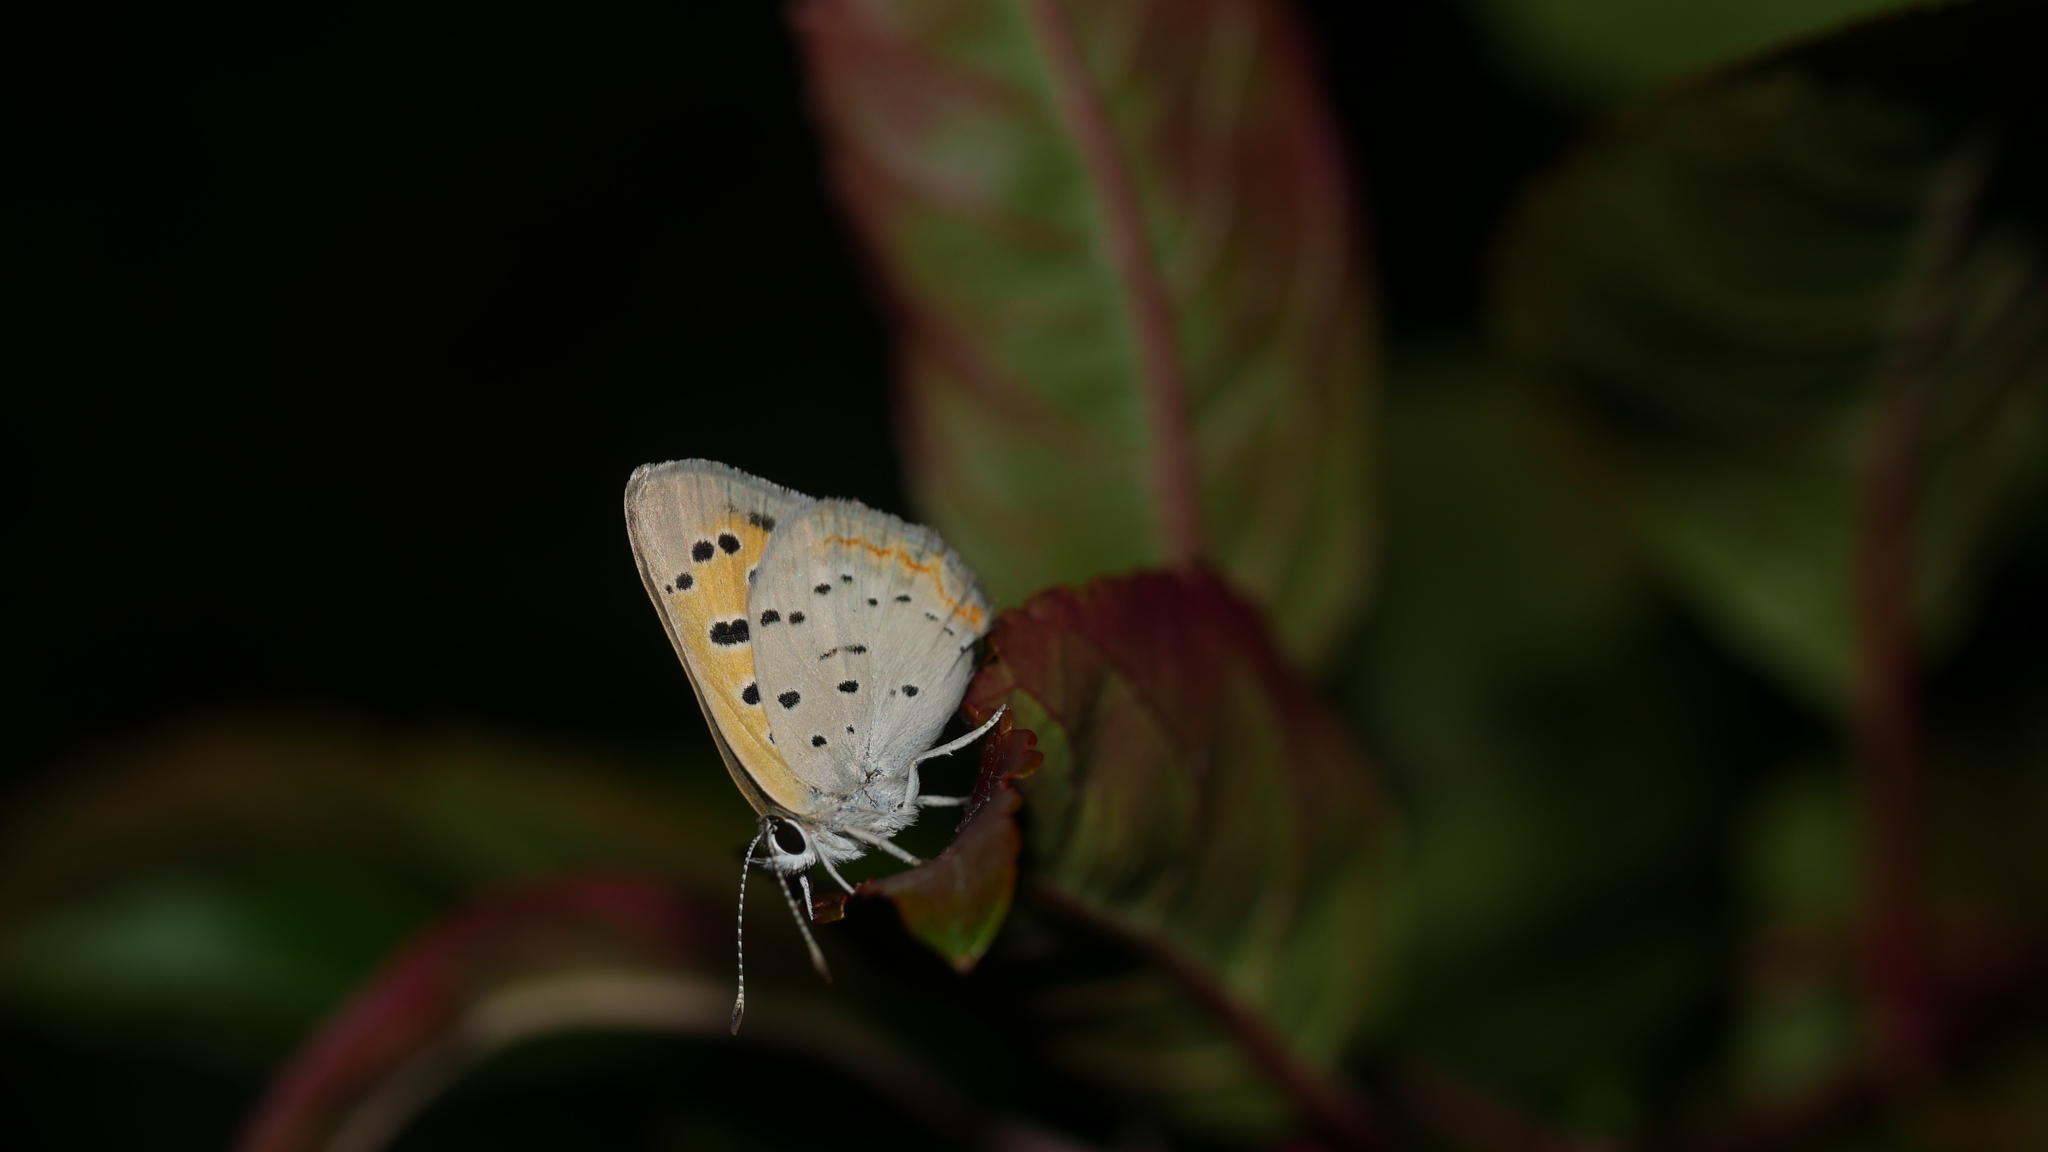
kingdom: Animalia
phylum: Arthropoda
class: Insecta
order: Lepidoptera
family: Lycaenidae
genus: Lycaena
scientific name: Lycaena hypophlaeas
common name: American copper
